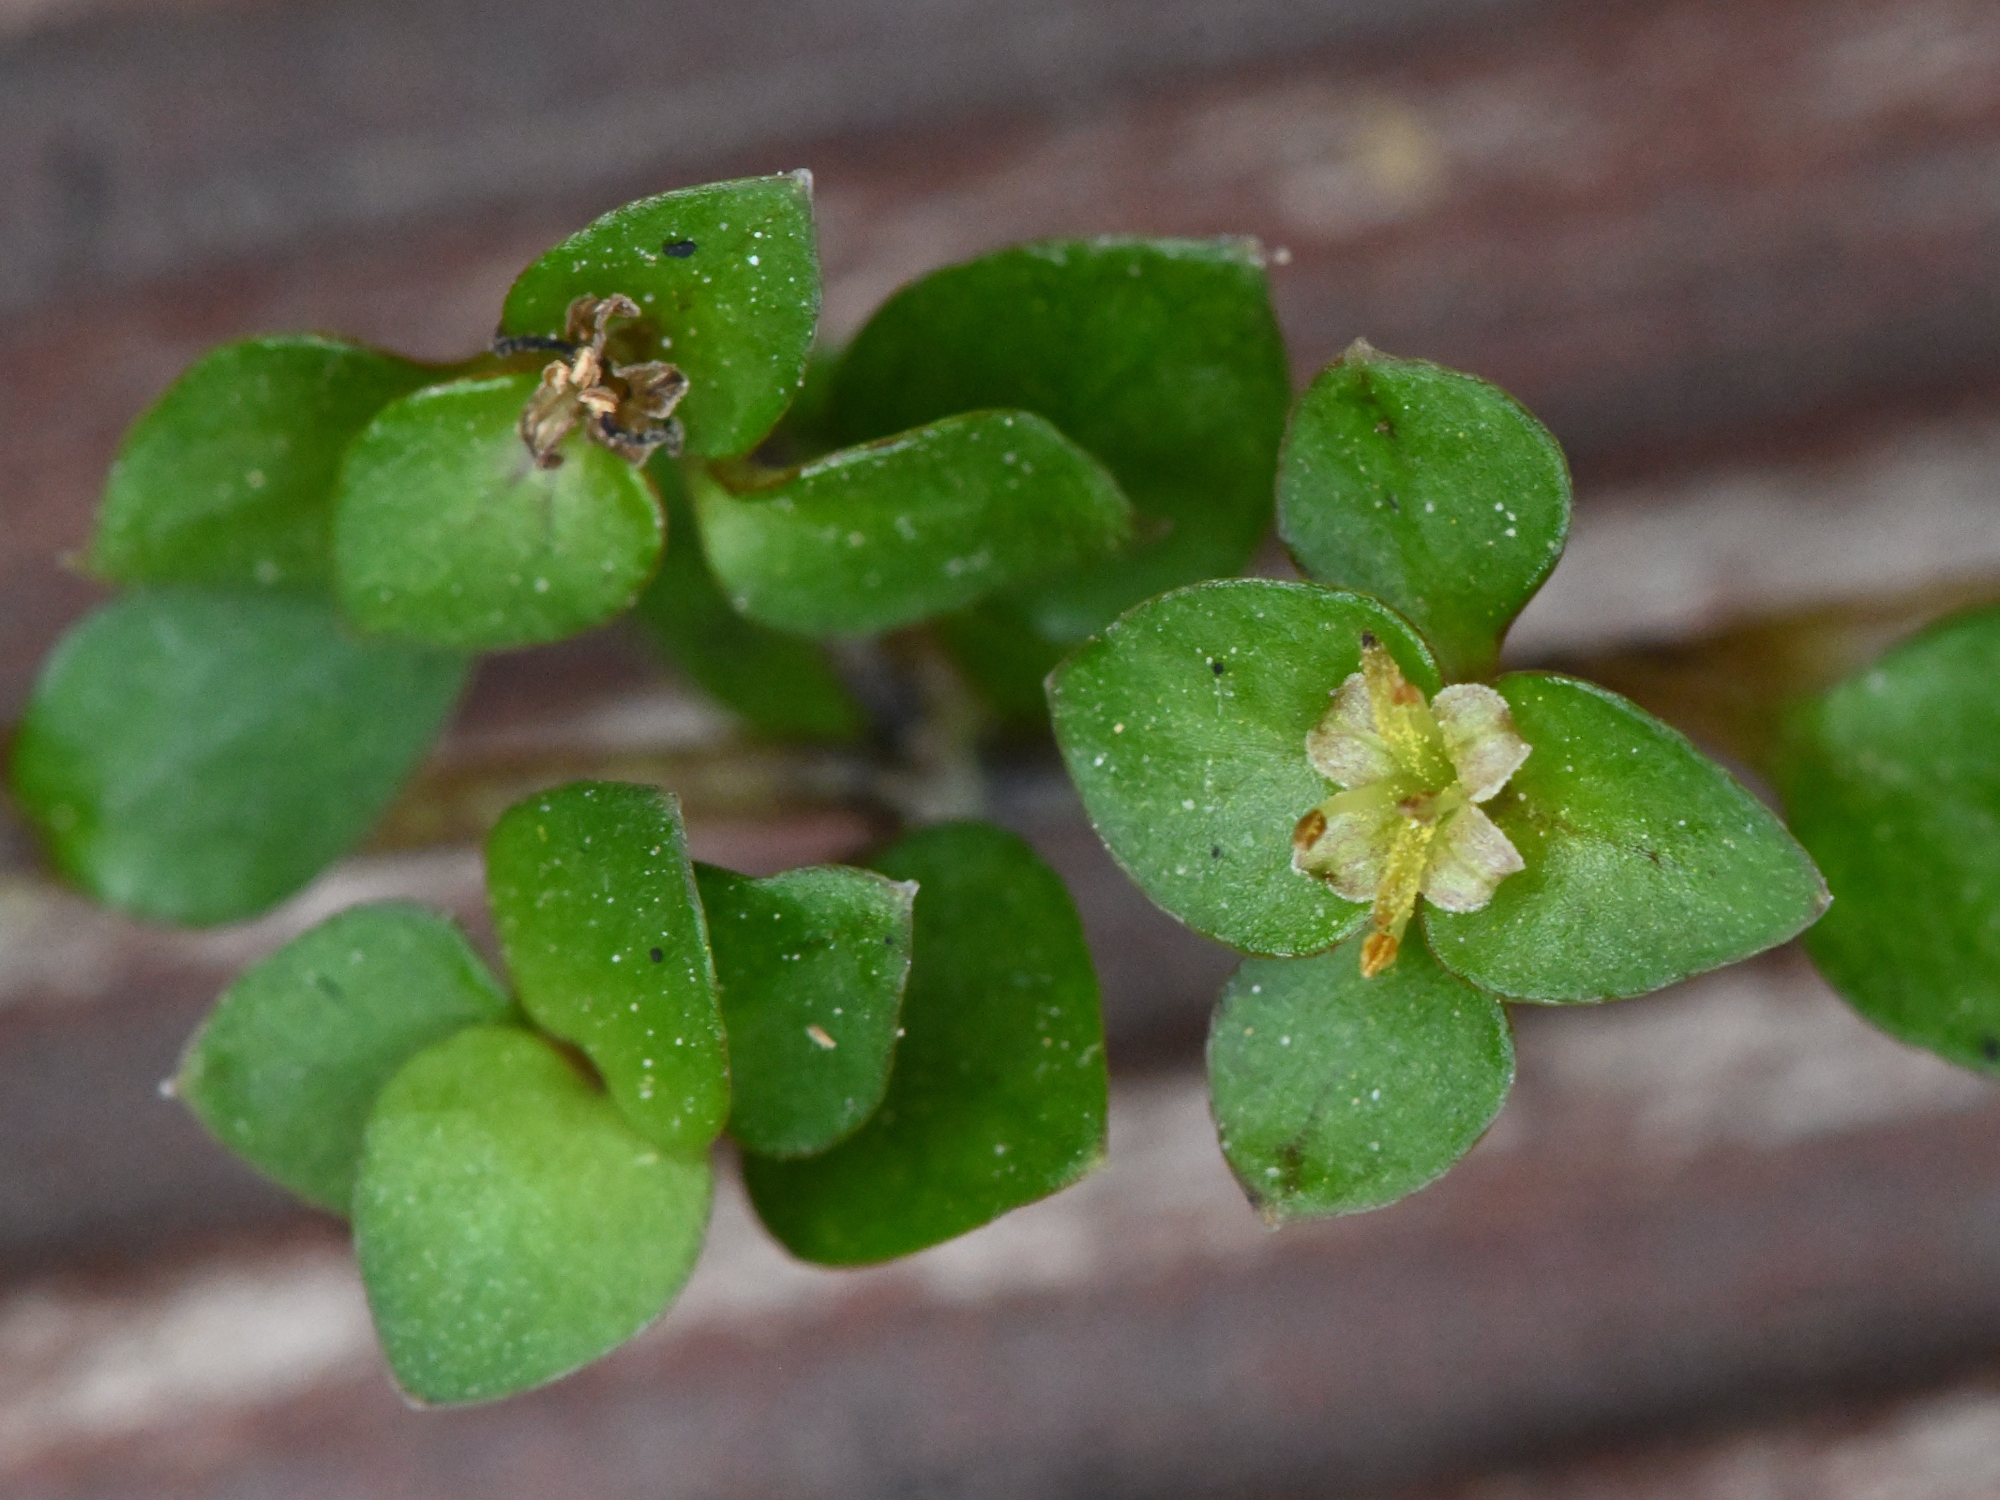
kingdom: Plantae
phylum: Tracheophyta
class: Magnoliopsida
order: Gentianales
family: Rubiaceae
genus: Nertera
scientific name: Nertera granadensis
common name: Beadplant
